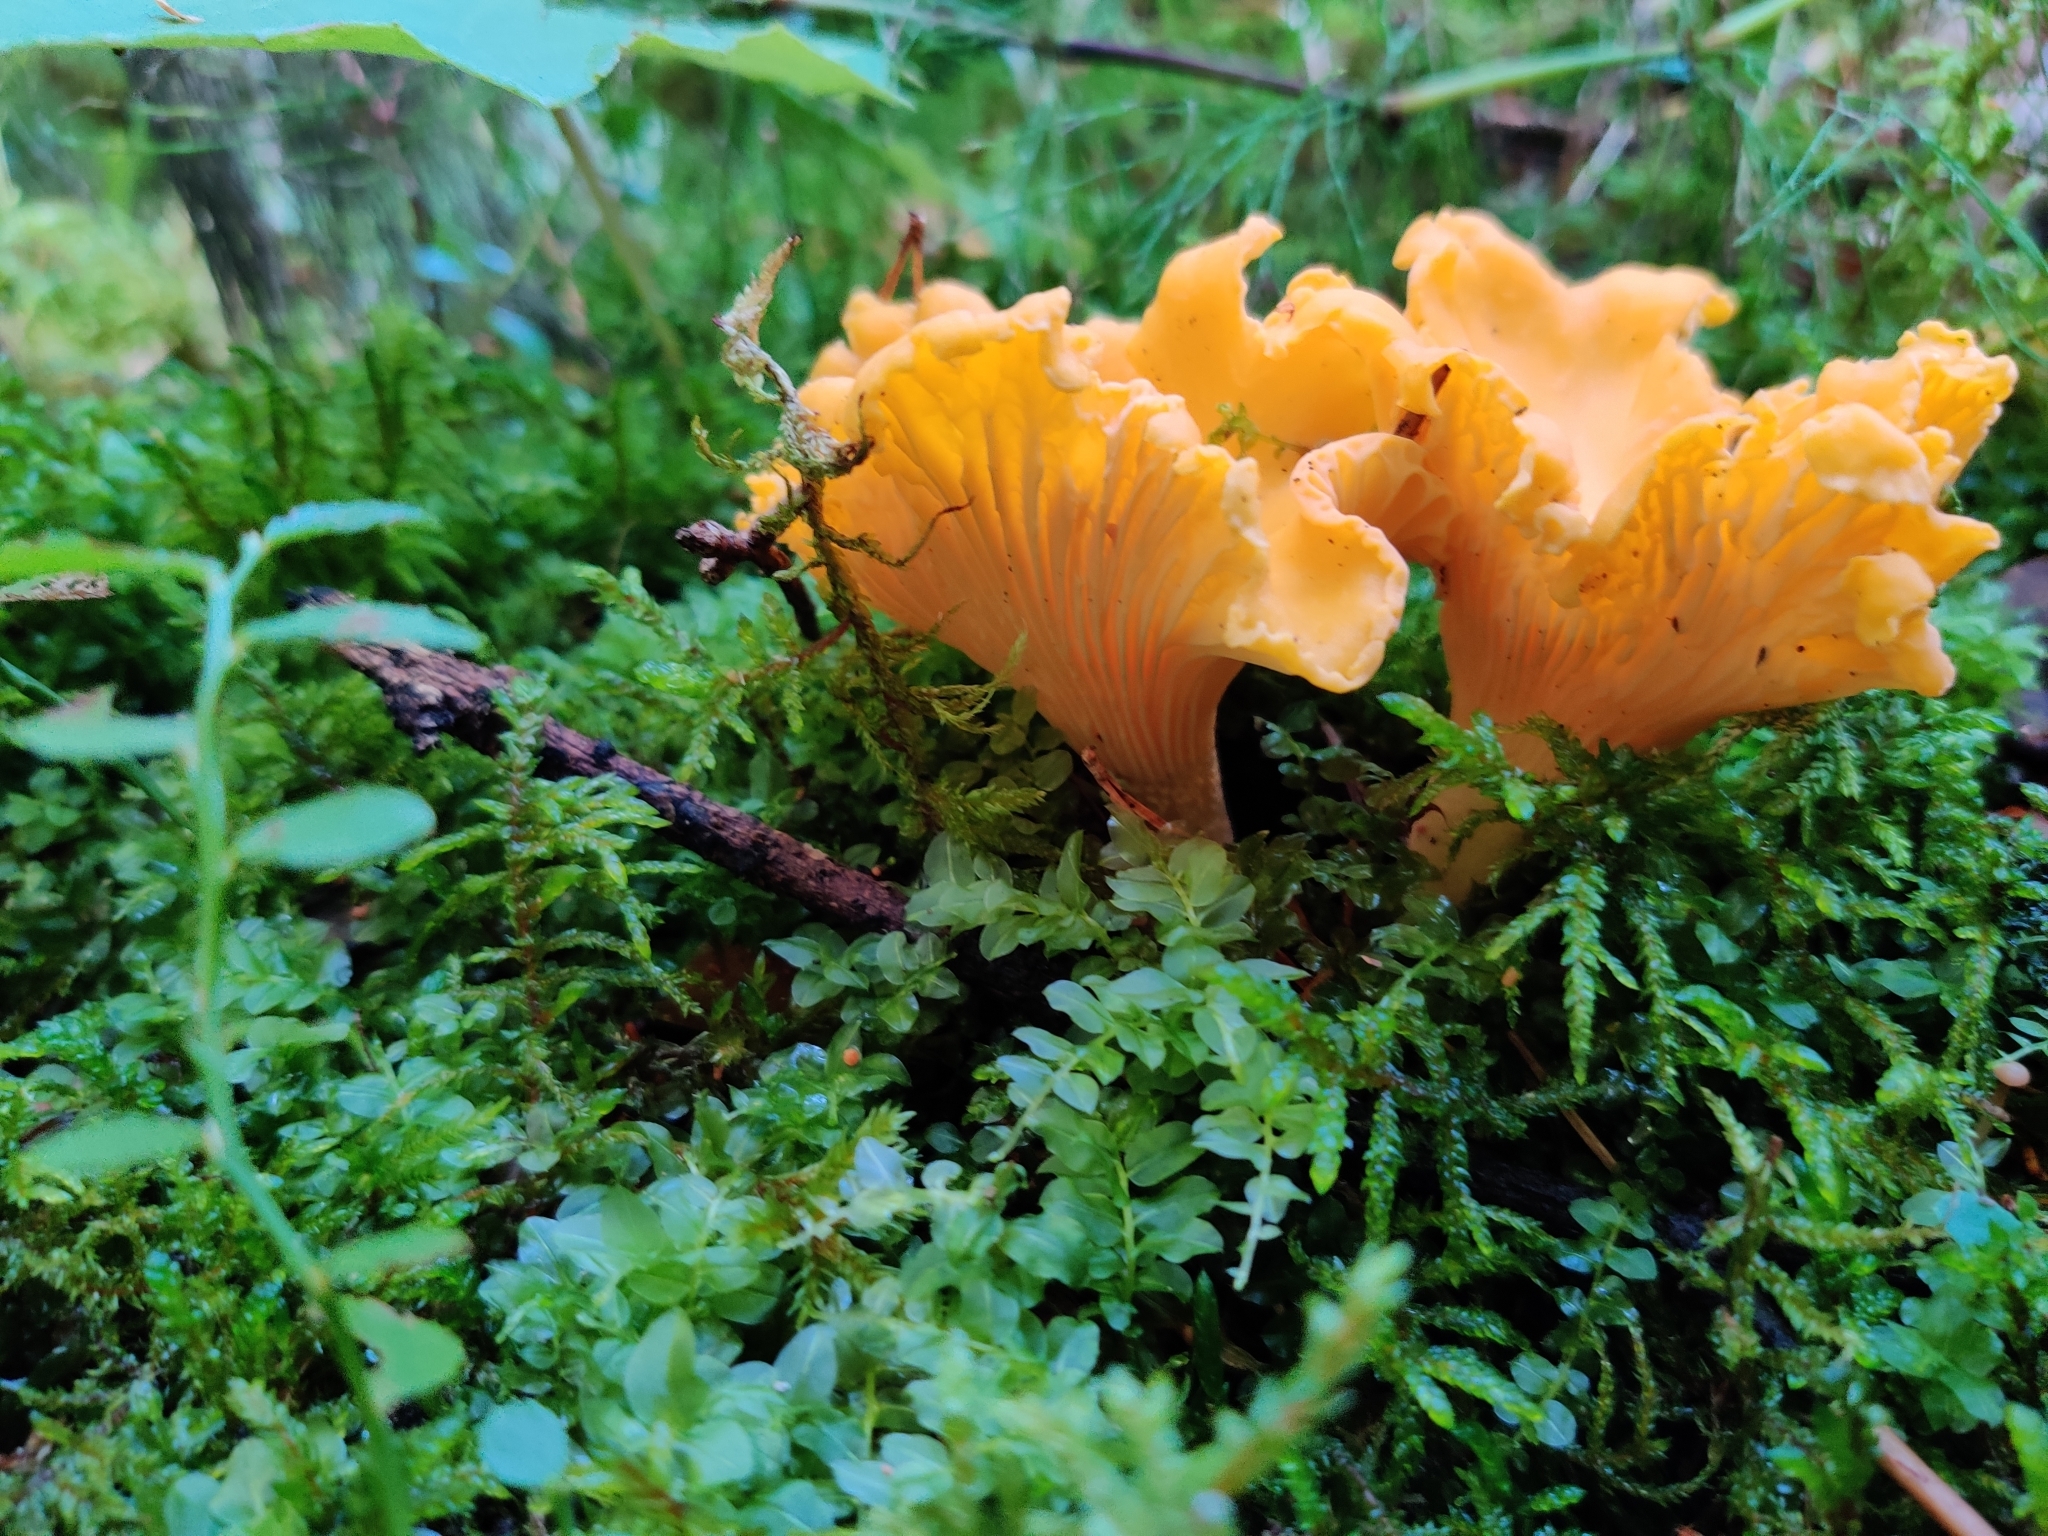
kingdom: Fungi
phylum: Basidiomycota
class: Agaricomycetes
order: Cantharellales
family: Hydnaceae
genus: Cantharellus
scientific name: Cantharellus cibarius
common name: Chanterelle
